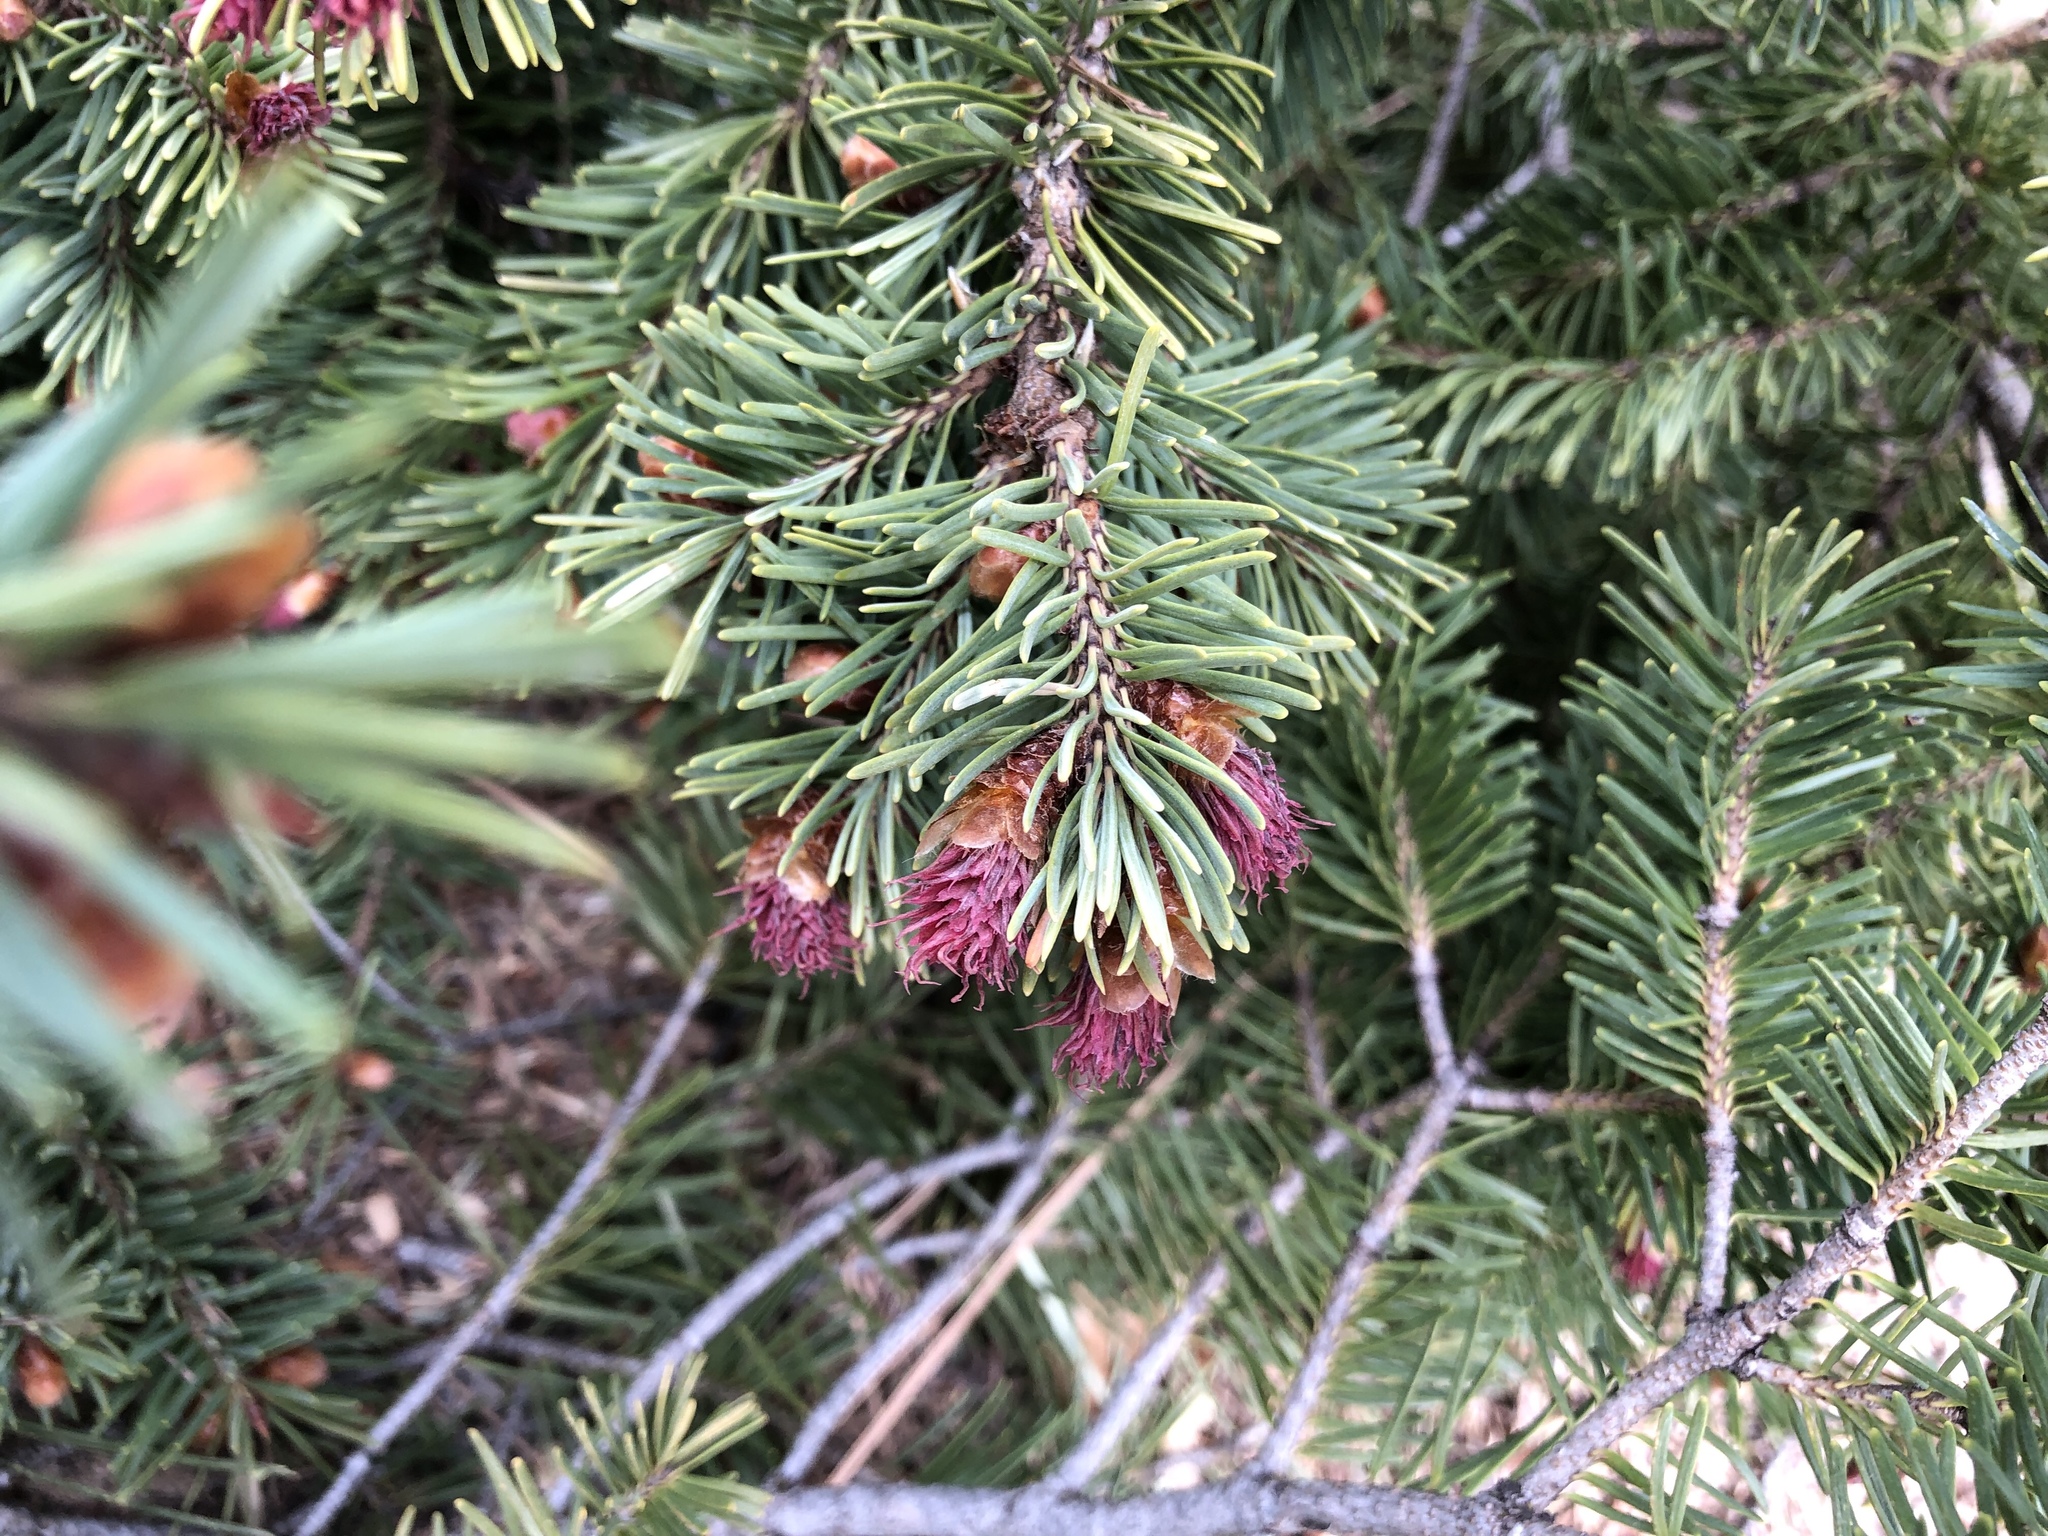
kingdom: Plantae
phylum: Tracheophyta
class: Pinopsida
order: Pinales
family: Pinaceae
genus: Pseudotsuga
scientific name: Pseudotsuga menziesii
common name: Douglas fir
